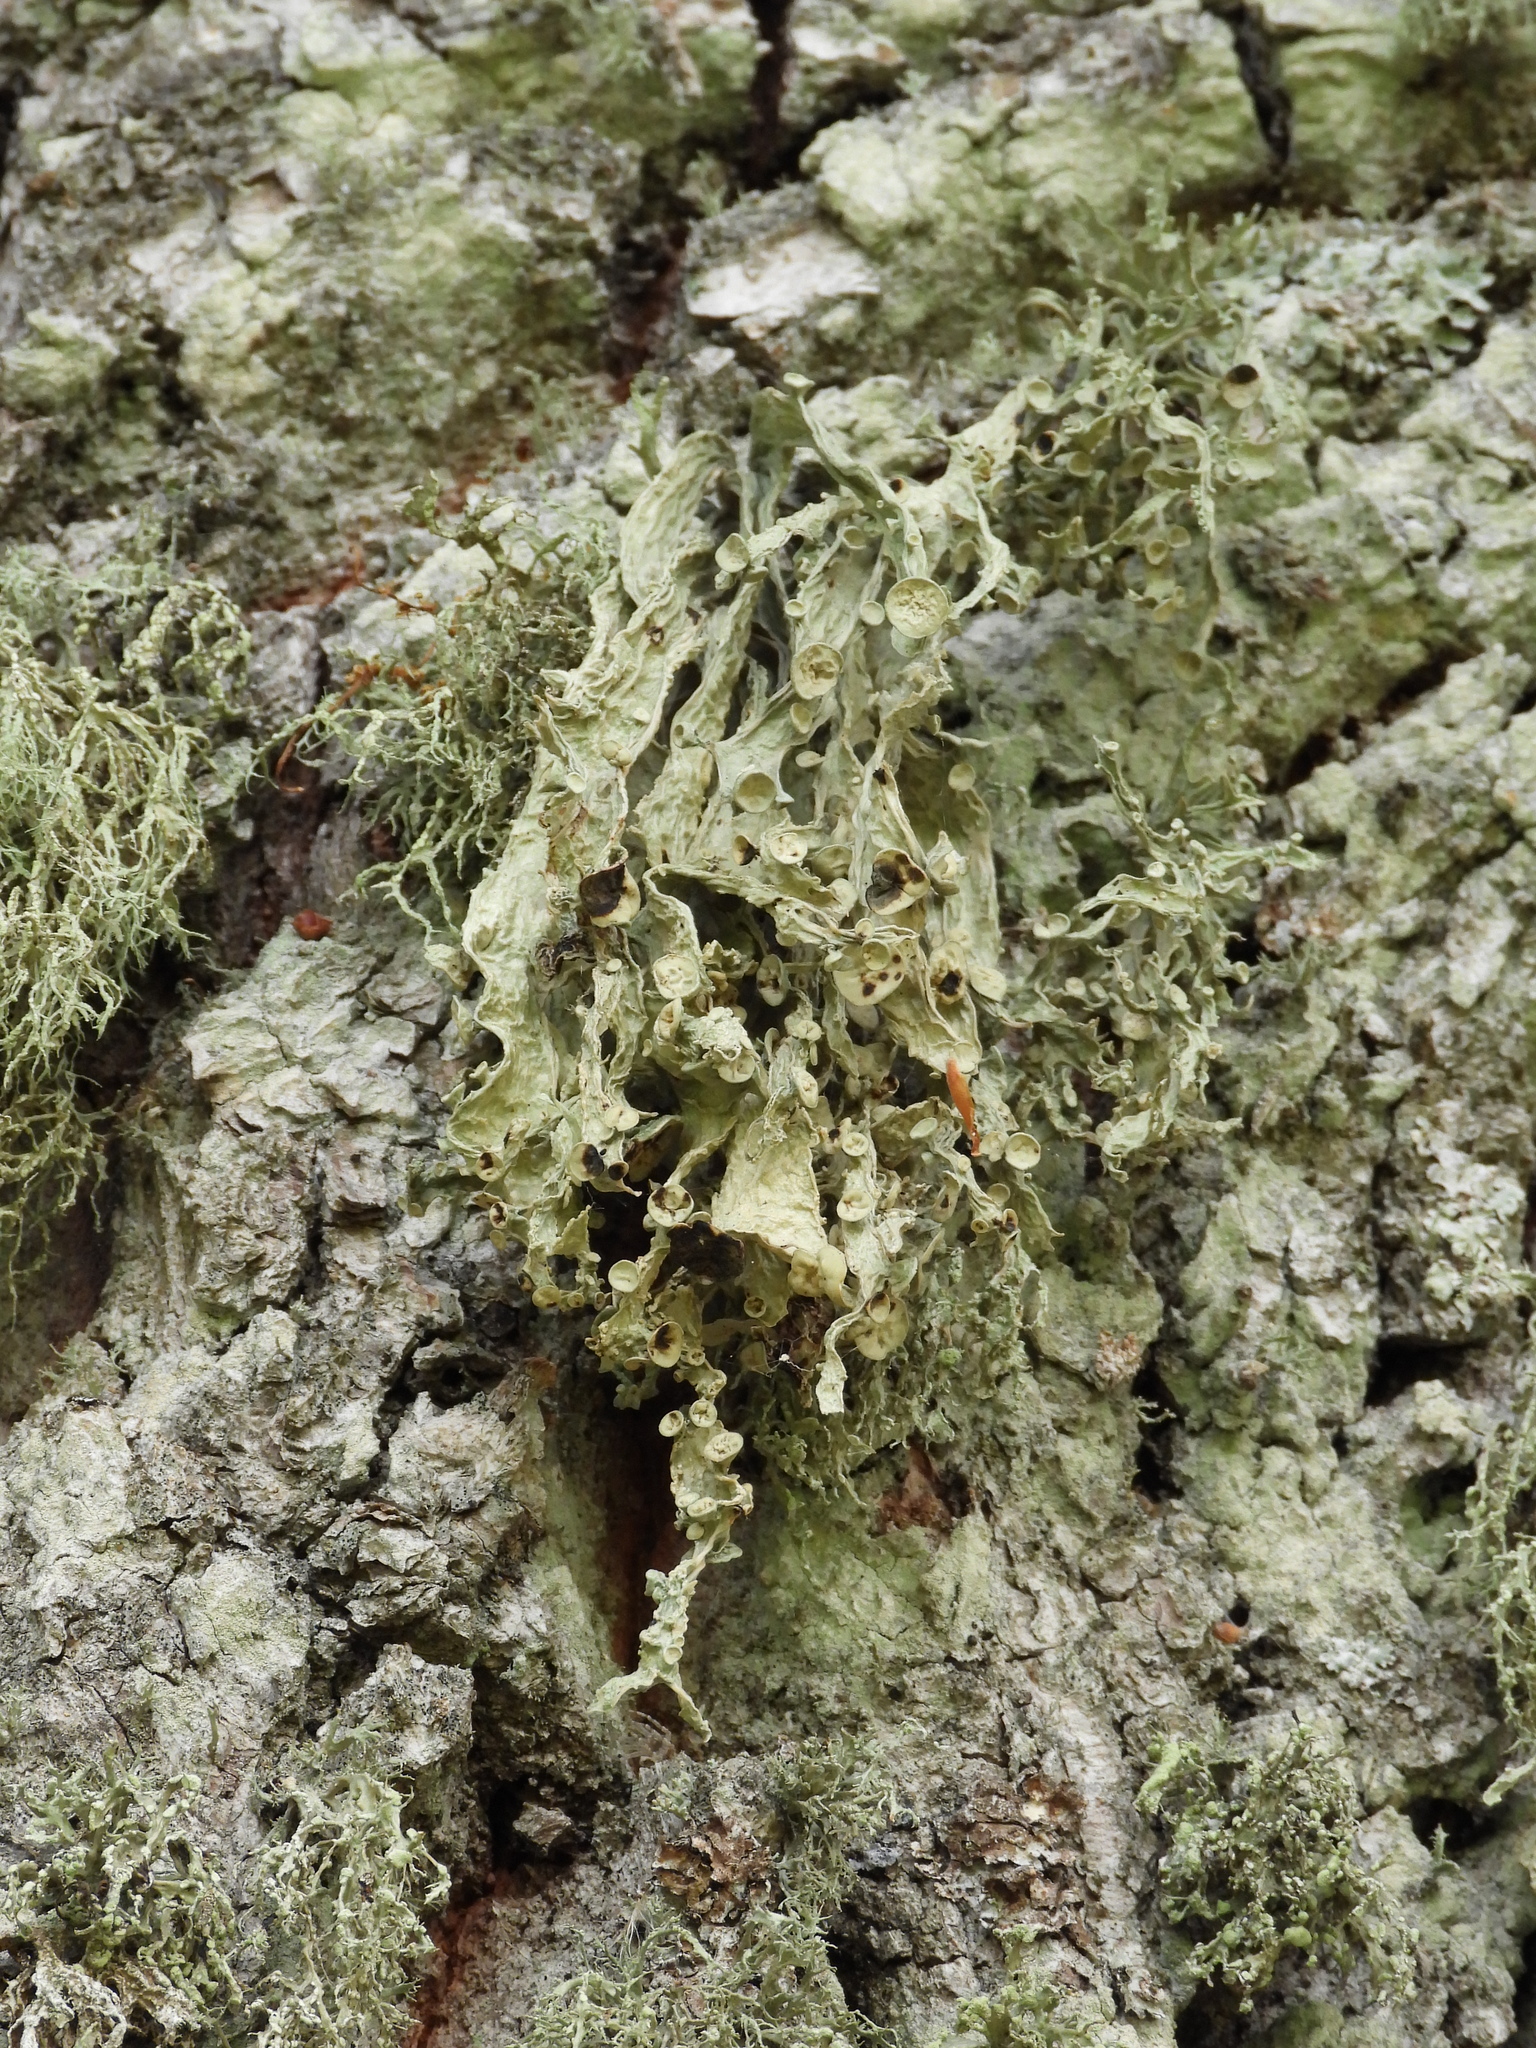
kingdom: Fungi
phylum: Ascomycota
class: Lecanoromycetes
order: Lecanorales
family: Ramalinaceae
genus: Ramalina
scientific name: Ramalina fraxinea
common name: Cartilage lichen
